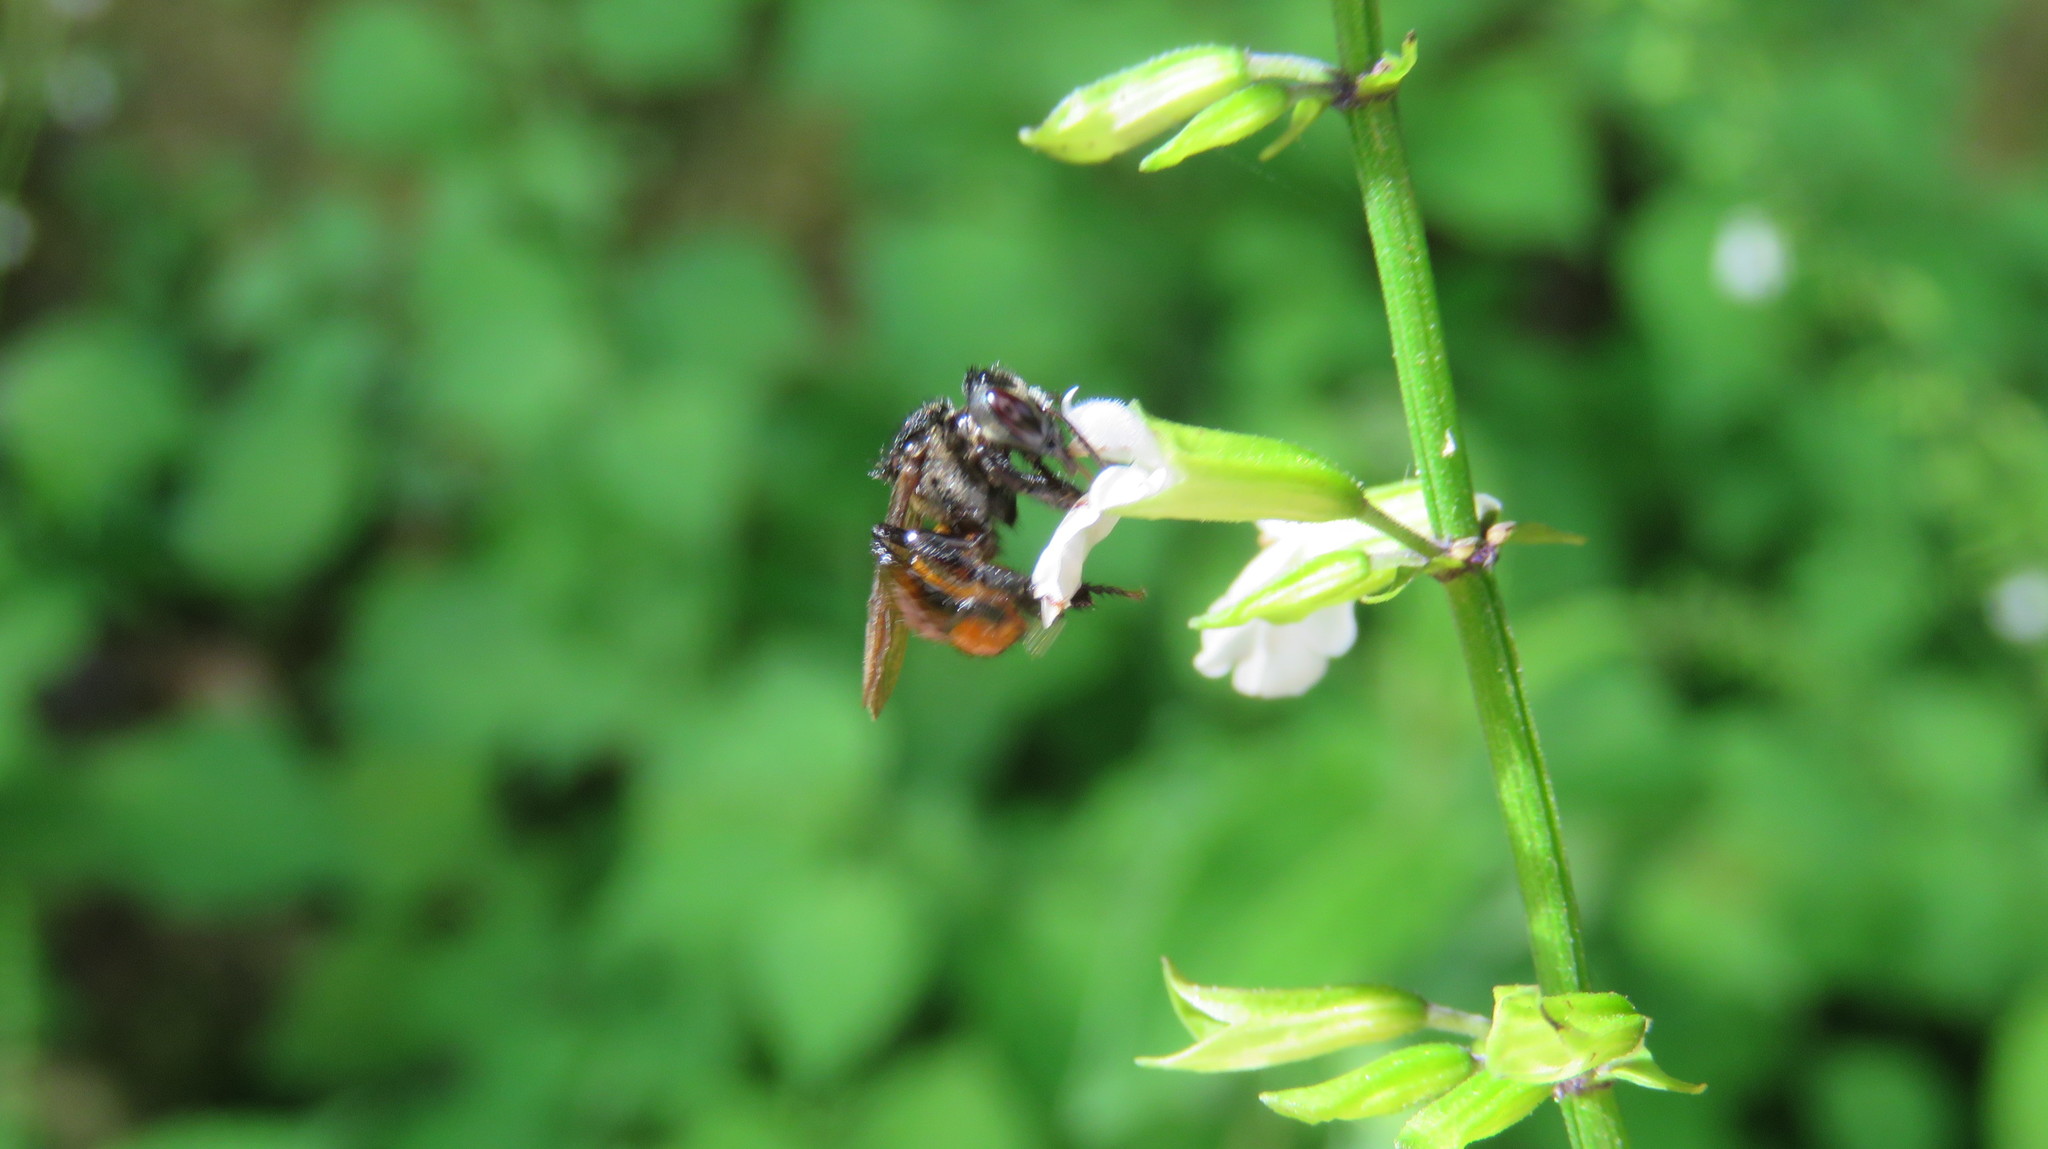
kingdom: Animalia
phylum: Arthropoda
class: Insecta
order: Hymenoptera
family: Apidae
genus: Trigona
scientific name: Trigona fulviventris
